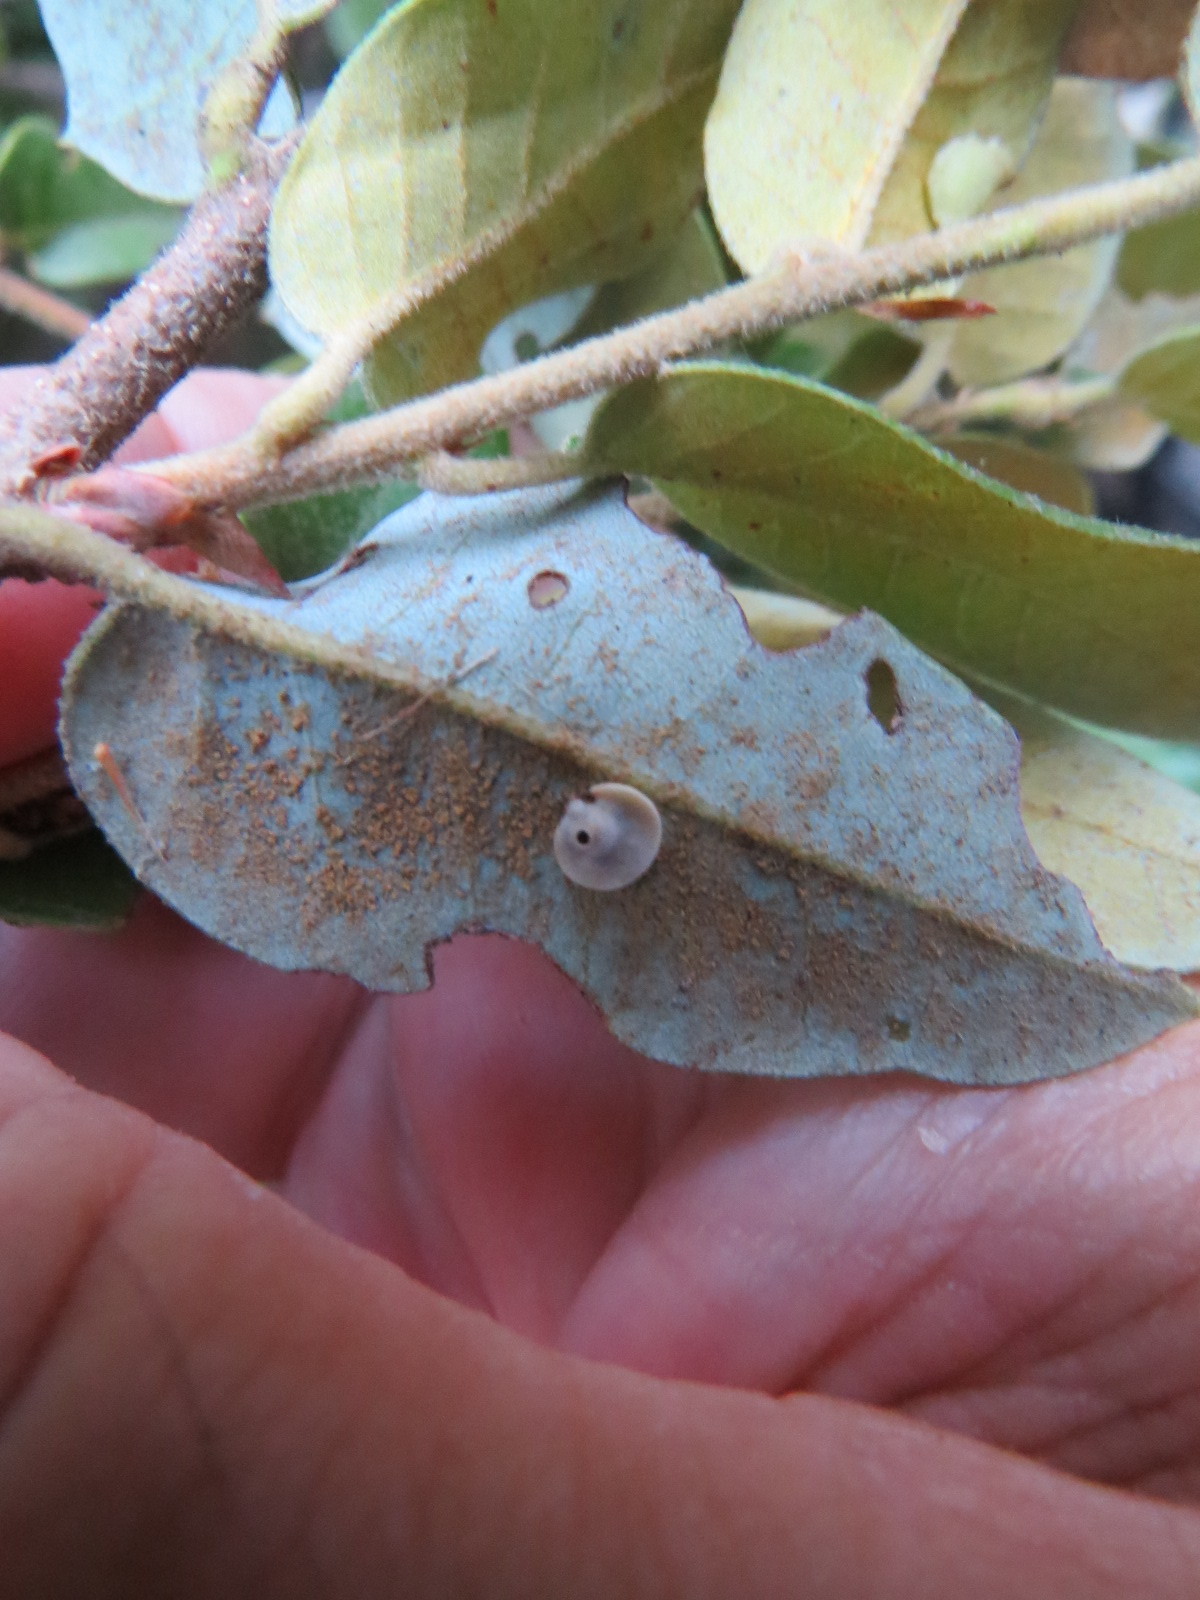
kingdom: Animalia
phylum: Arthropoda
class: Insecta
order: Hymenoptera
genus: Paracraspis
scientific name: Paracraspis
